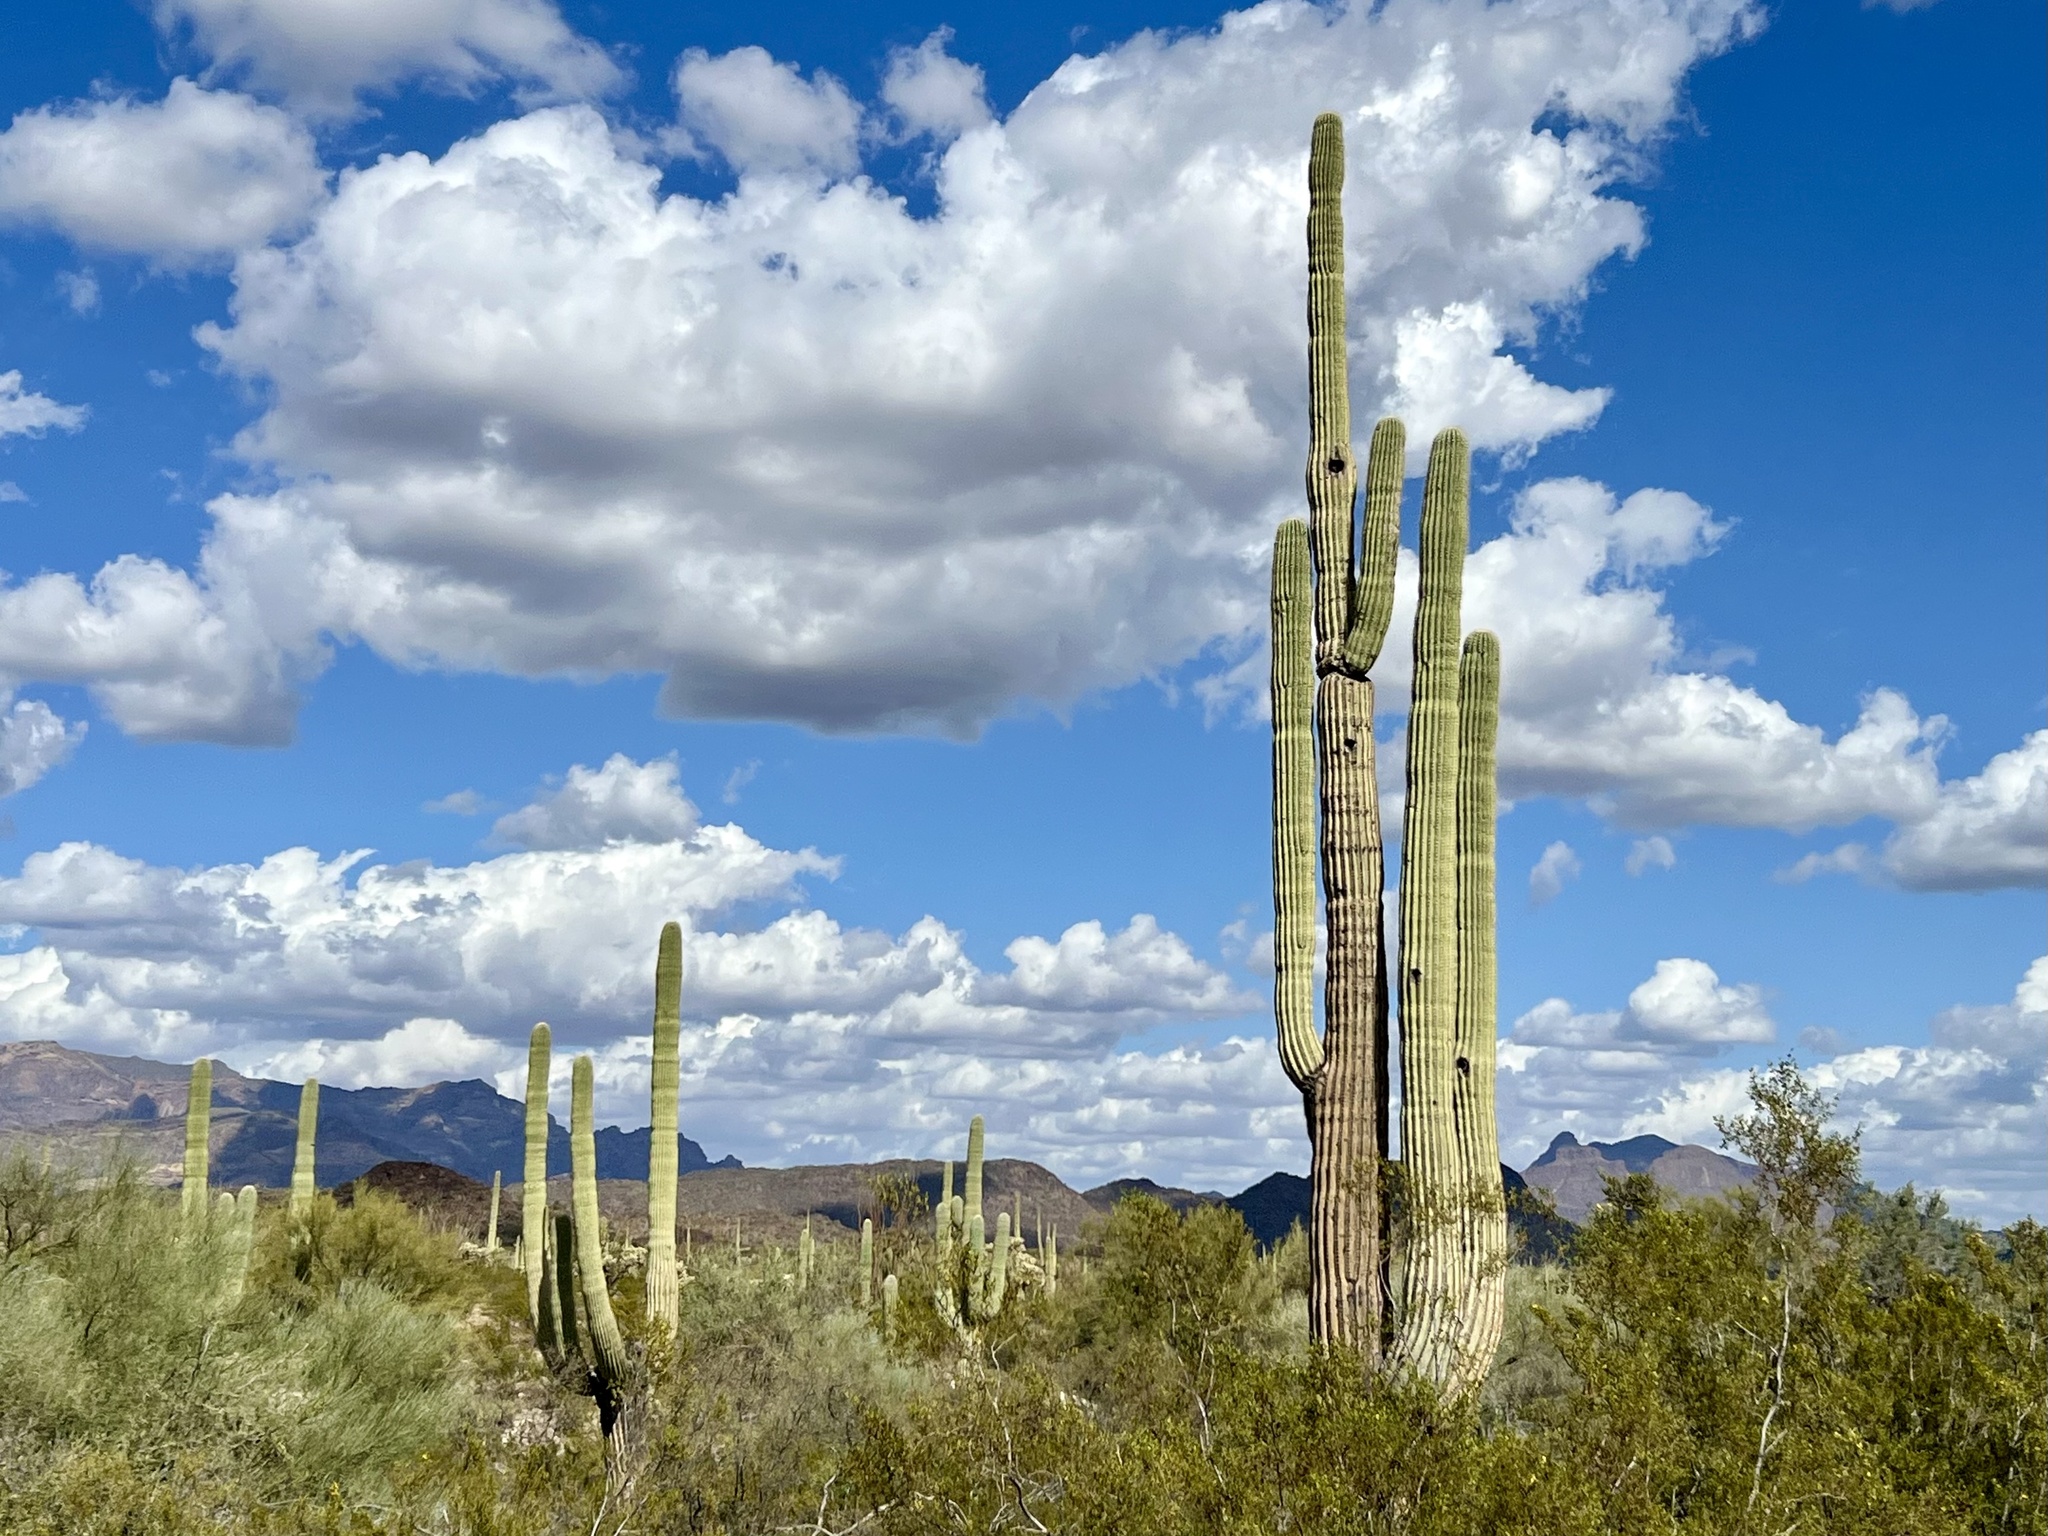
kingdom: Plantae
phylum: Tracheophyta
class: Magnoliopsida
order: Caryophyllales
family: Cactaceae
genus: Carnegiea
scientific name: Carnegiea gigantea
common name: Saguaro
